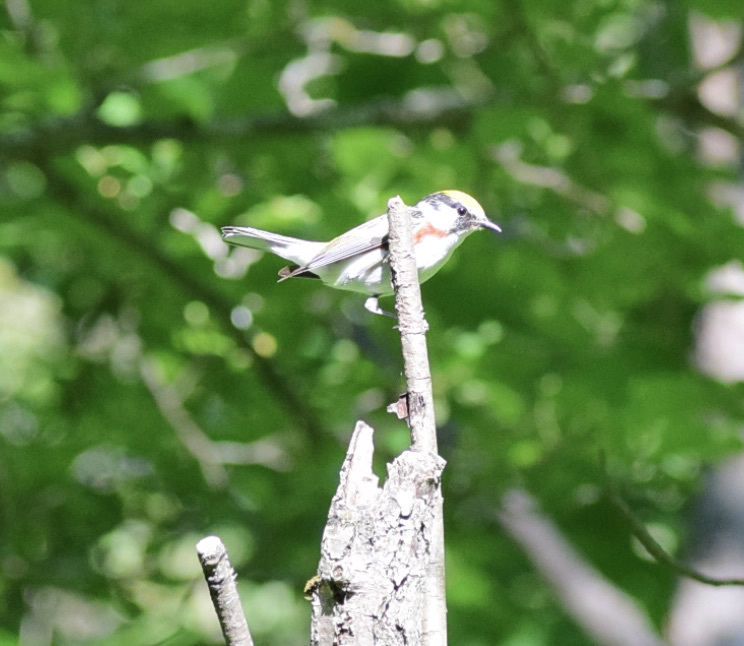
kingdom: Animalia
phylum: Chordata
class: Aves
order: Passeriformes
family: Parulidae
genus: Setophaga
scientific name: Setophaga pensylvanica
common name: Chestnut-sided warbler
